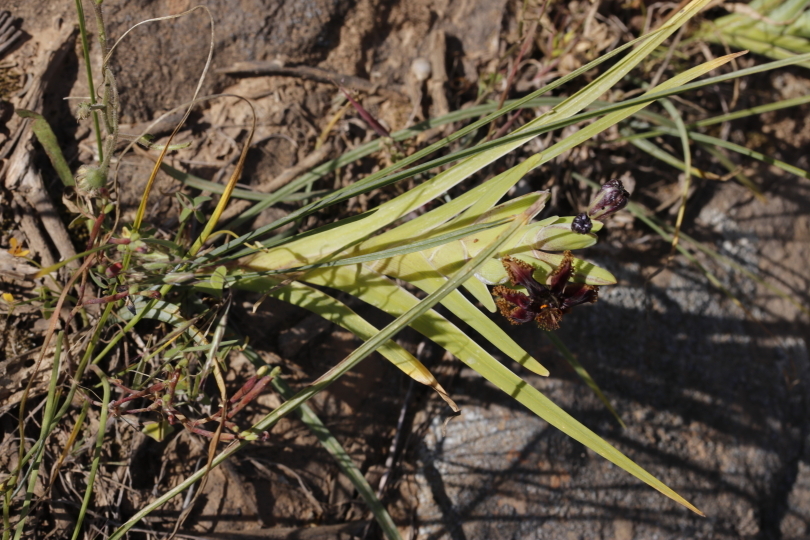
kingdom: Plantae
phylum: Tracheophyta
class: Liliopsida
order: Asparagales
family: Iridaceae
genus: Ferraria
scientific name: Ferraria crispa
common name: Black-flag
